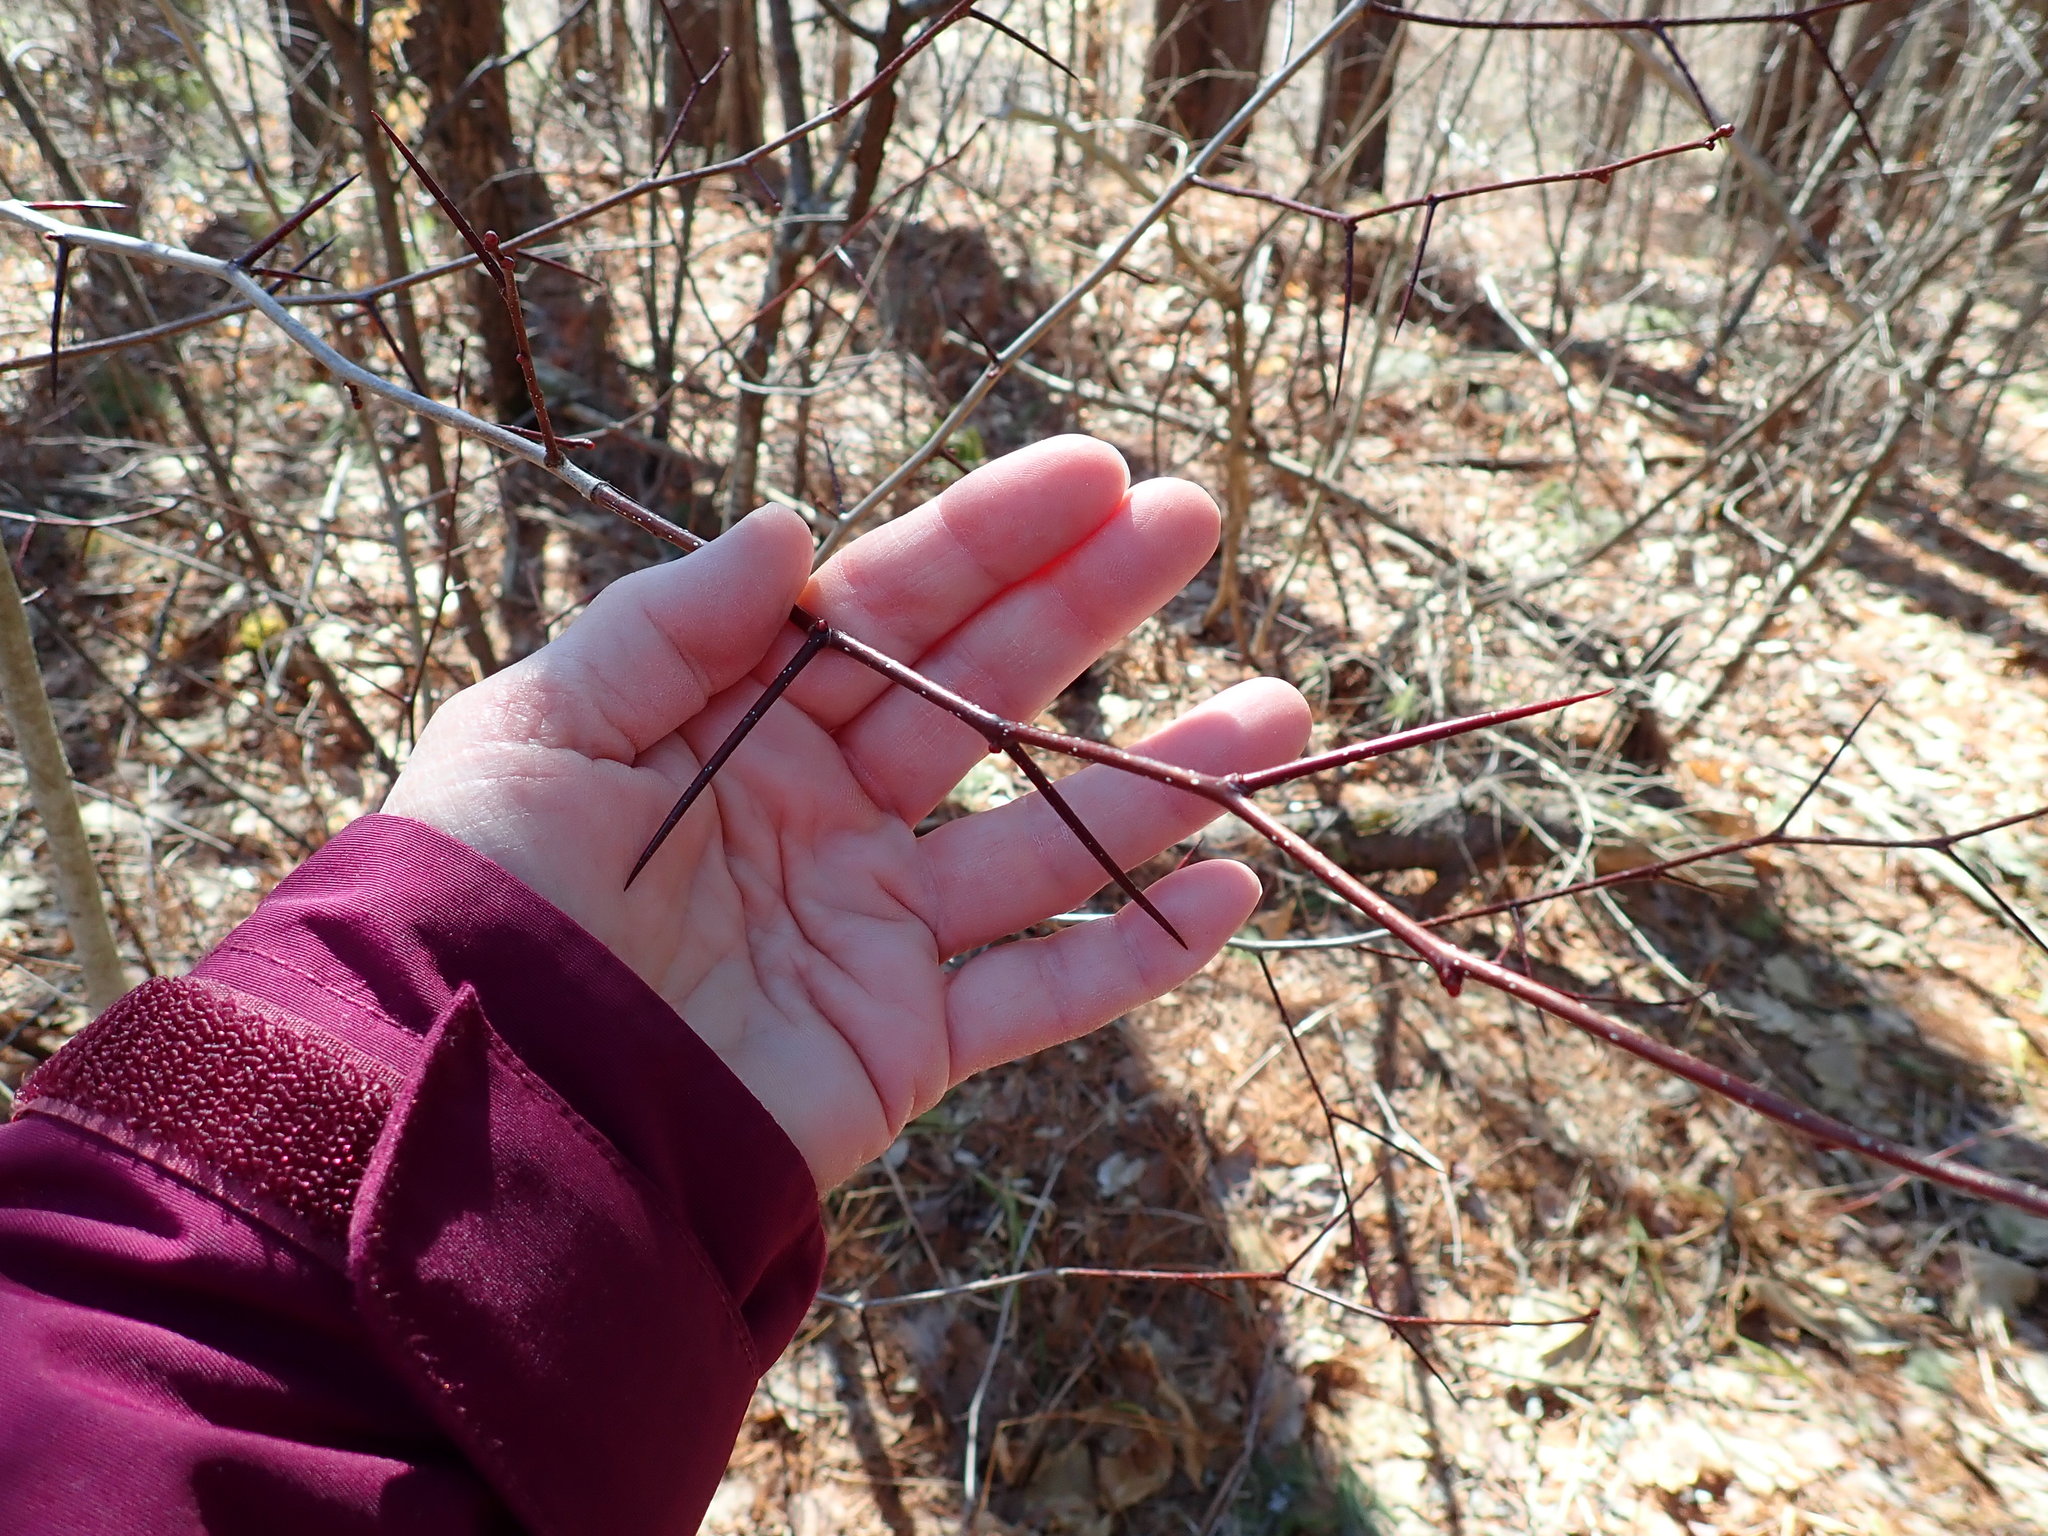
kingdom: Plantae
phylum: Tracheophyta
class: Magnoliopsida
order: Rosales
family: Rosaceae
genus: Crataegus
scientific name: Crataegus
